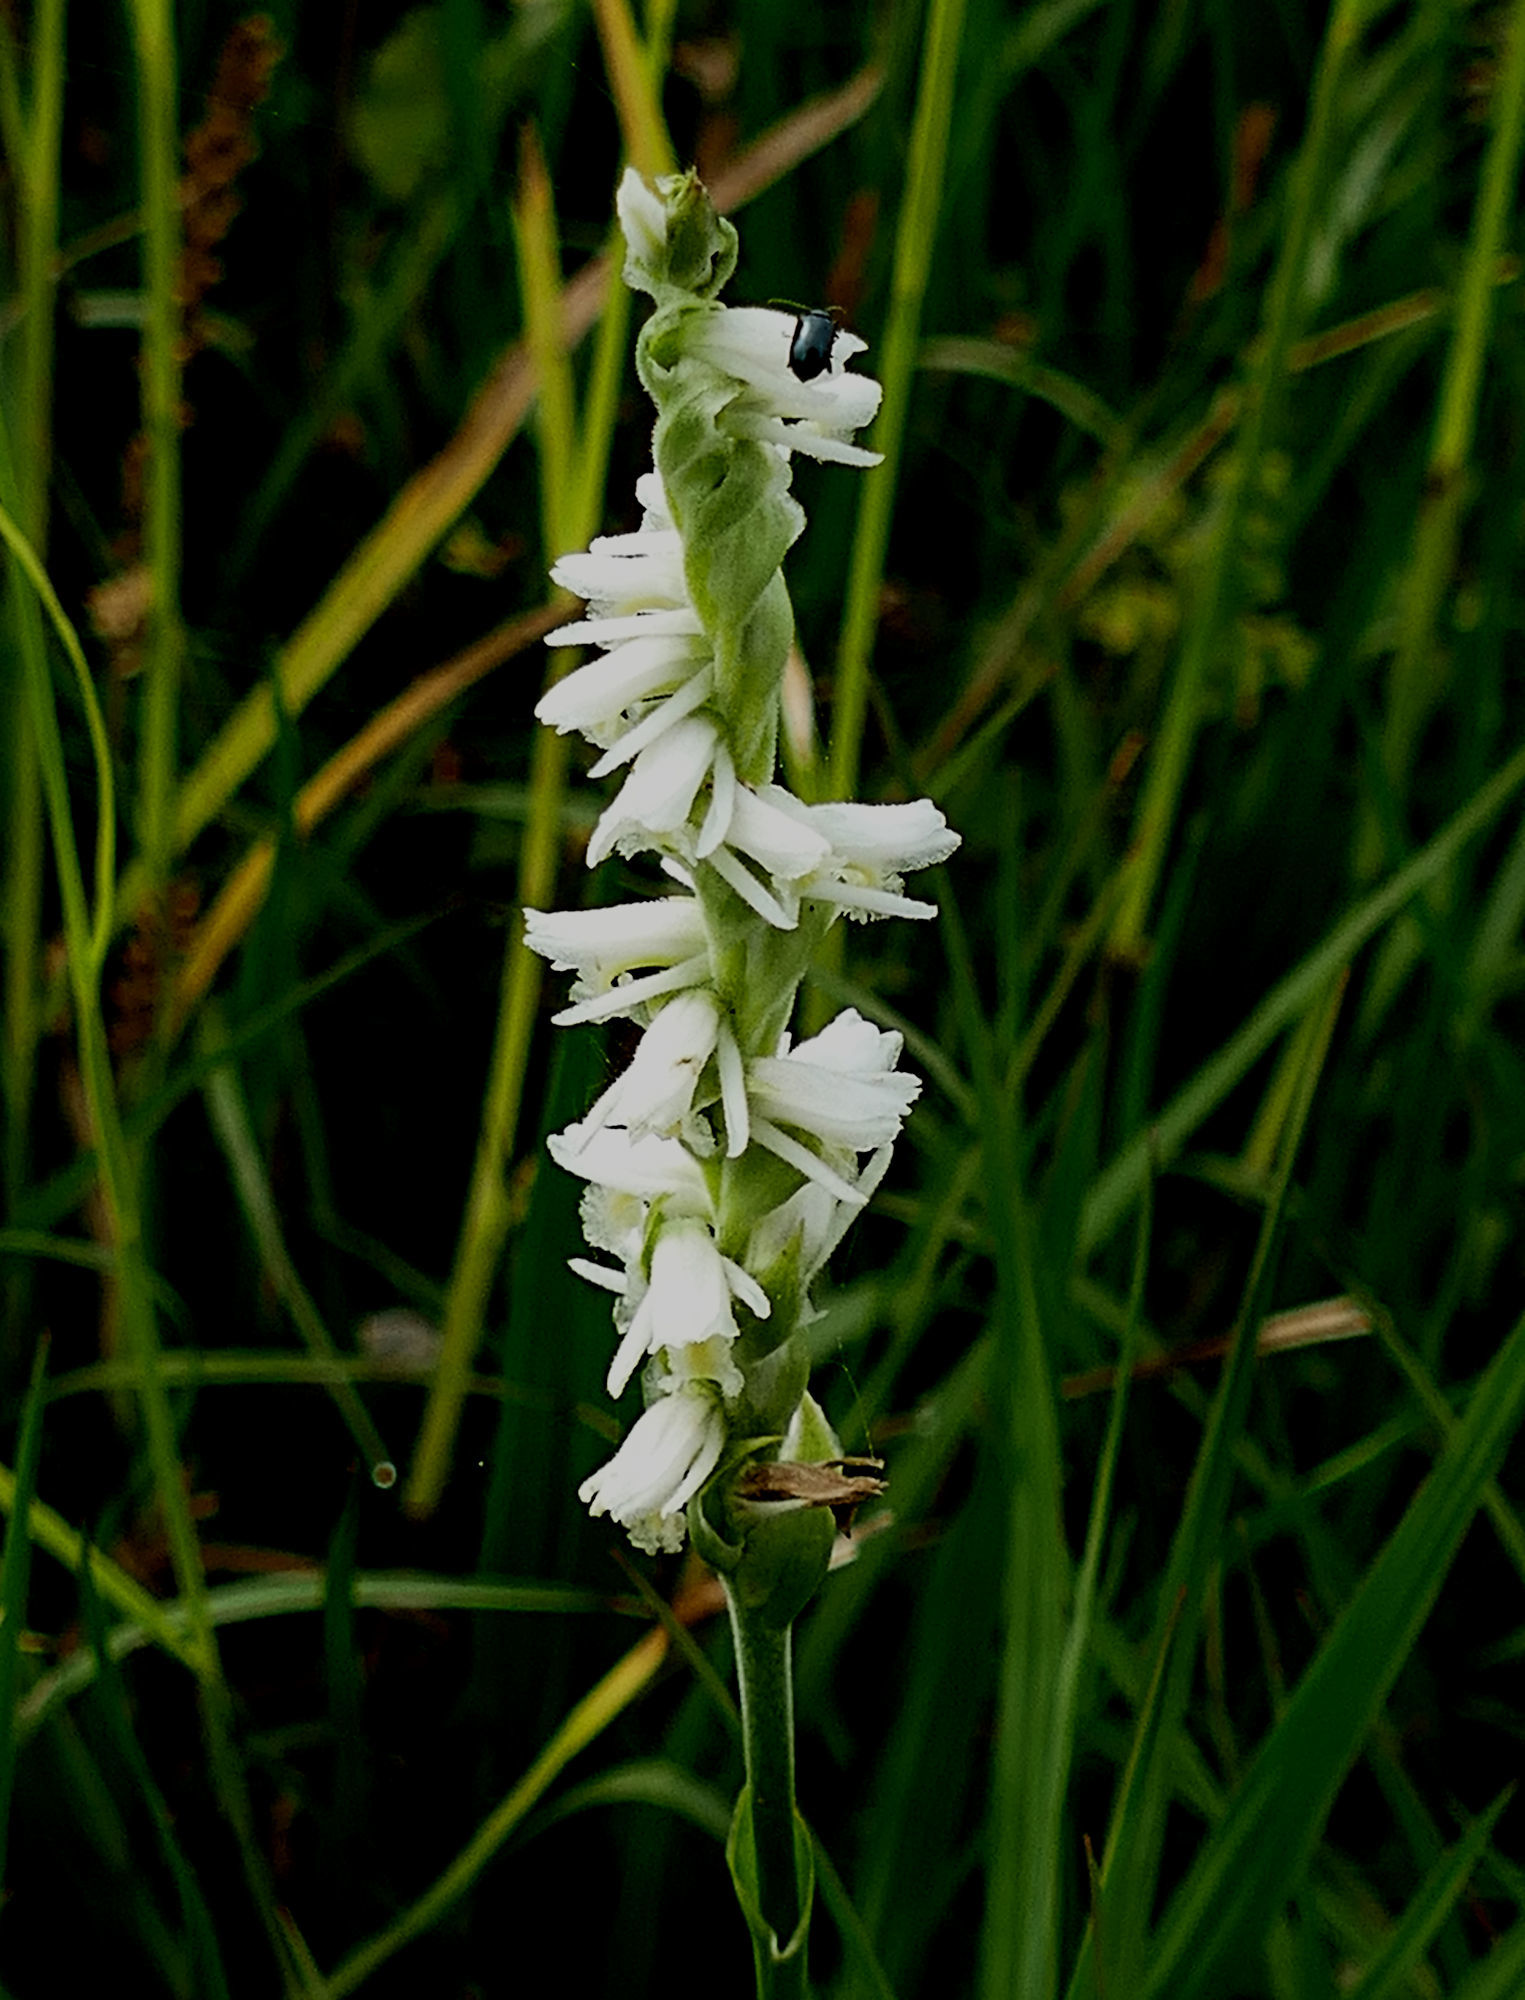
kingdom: Plantae
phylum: Tracheophyta
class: Liliopsida
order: Asparagales
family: Orchidaceae
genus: Spiranthes
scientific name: Spiranthes vernalis
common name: Spring ladies'-tresses
